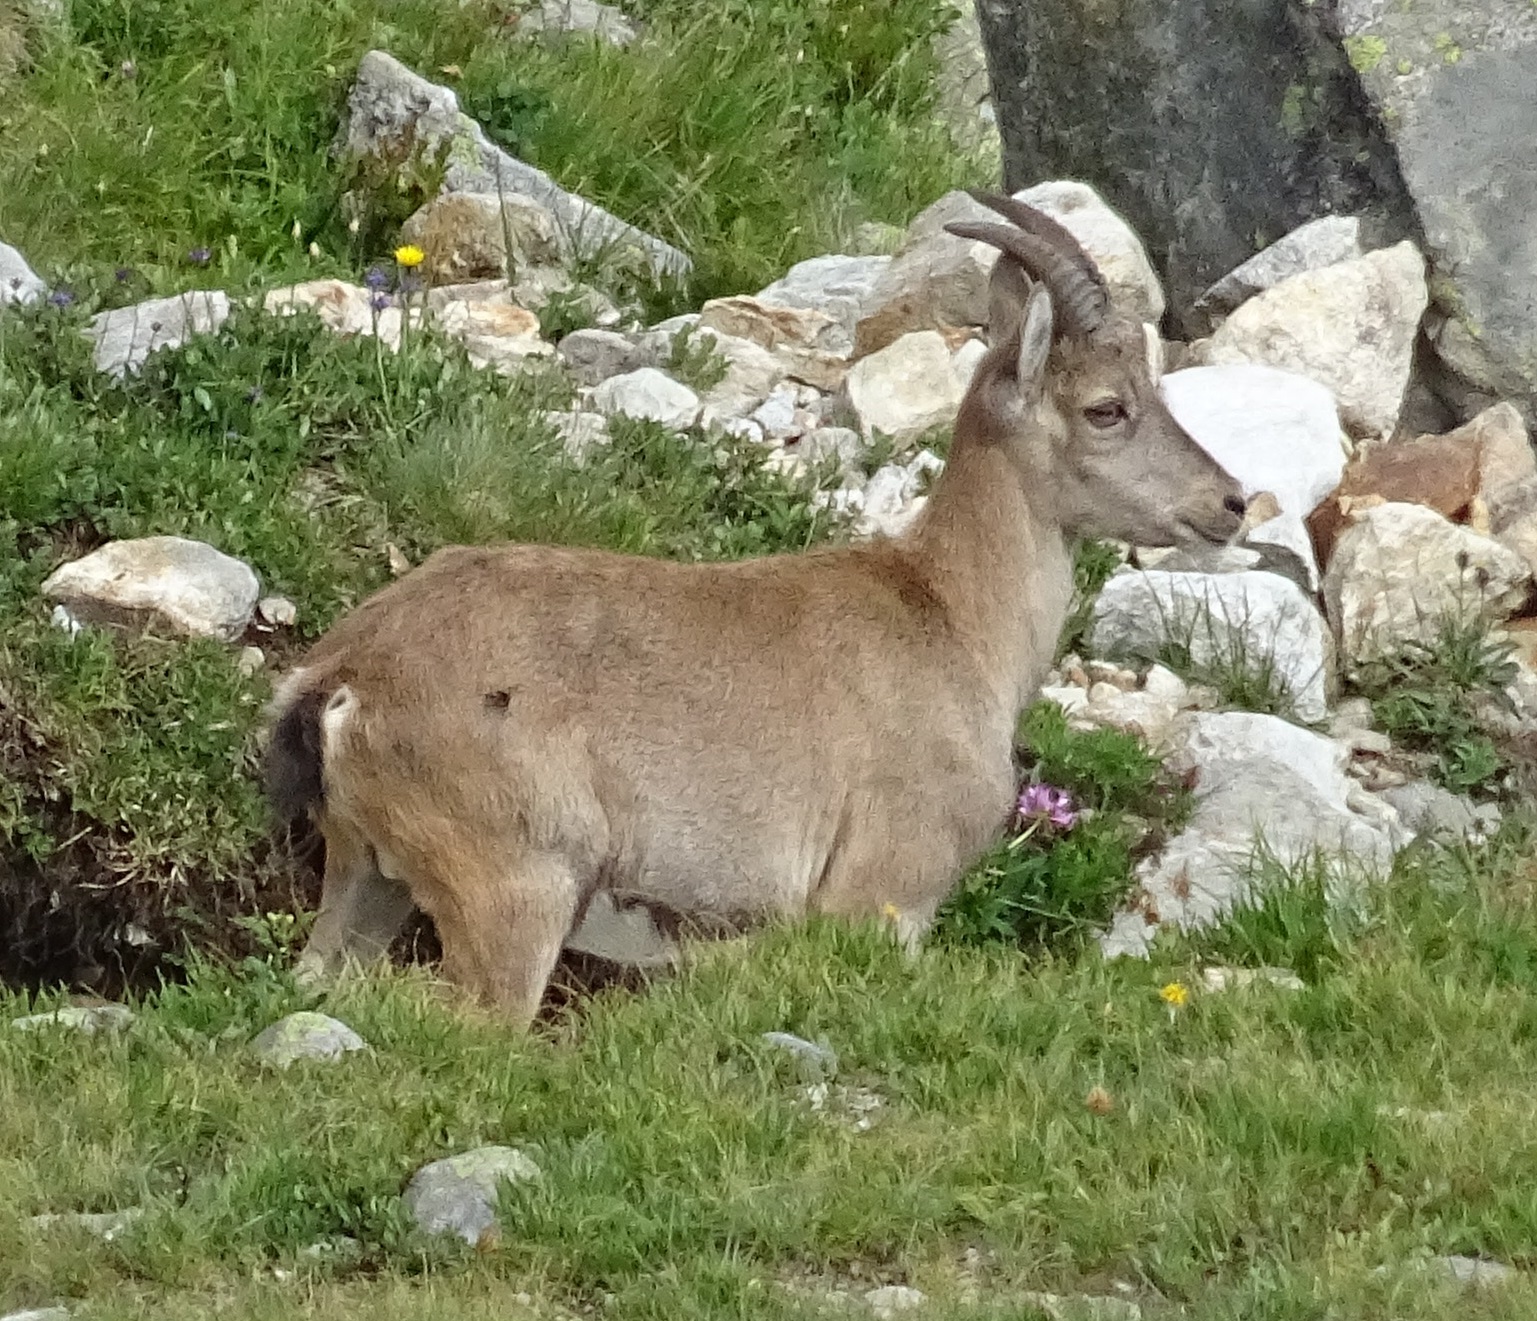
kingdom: Animalia
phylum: Chordata
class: Mammalia
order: Artiodactyla
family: Bovidae
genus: Capra
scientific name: Capra ibex
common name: Alpine ibex
